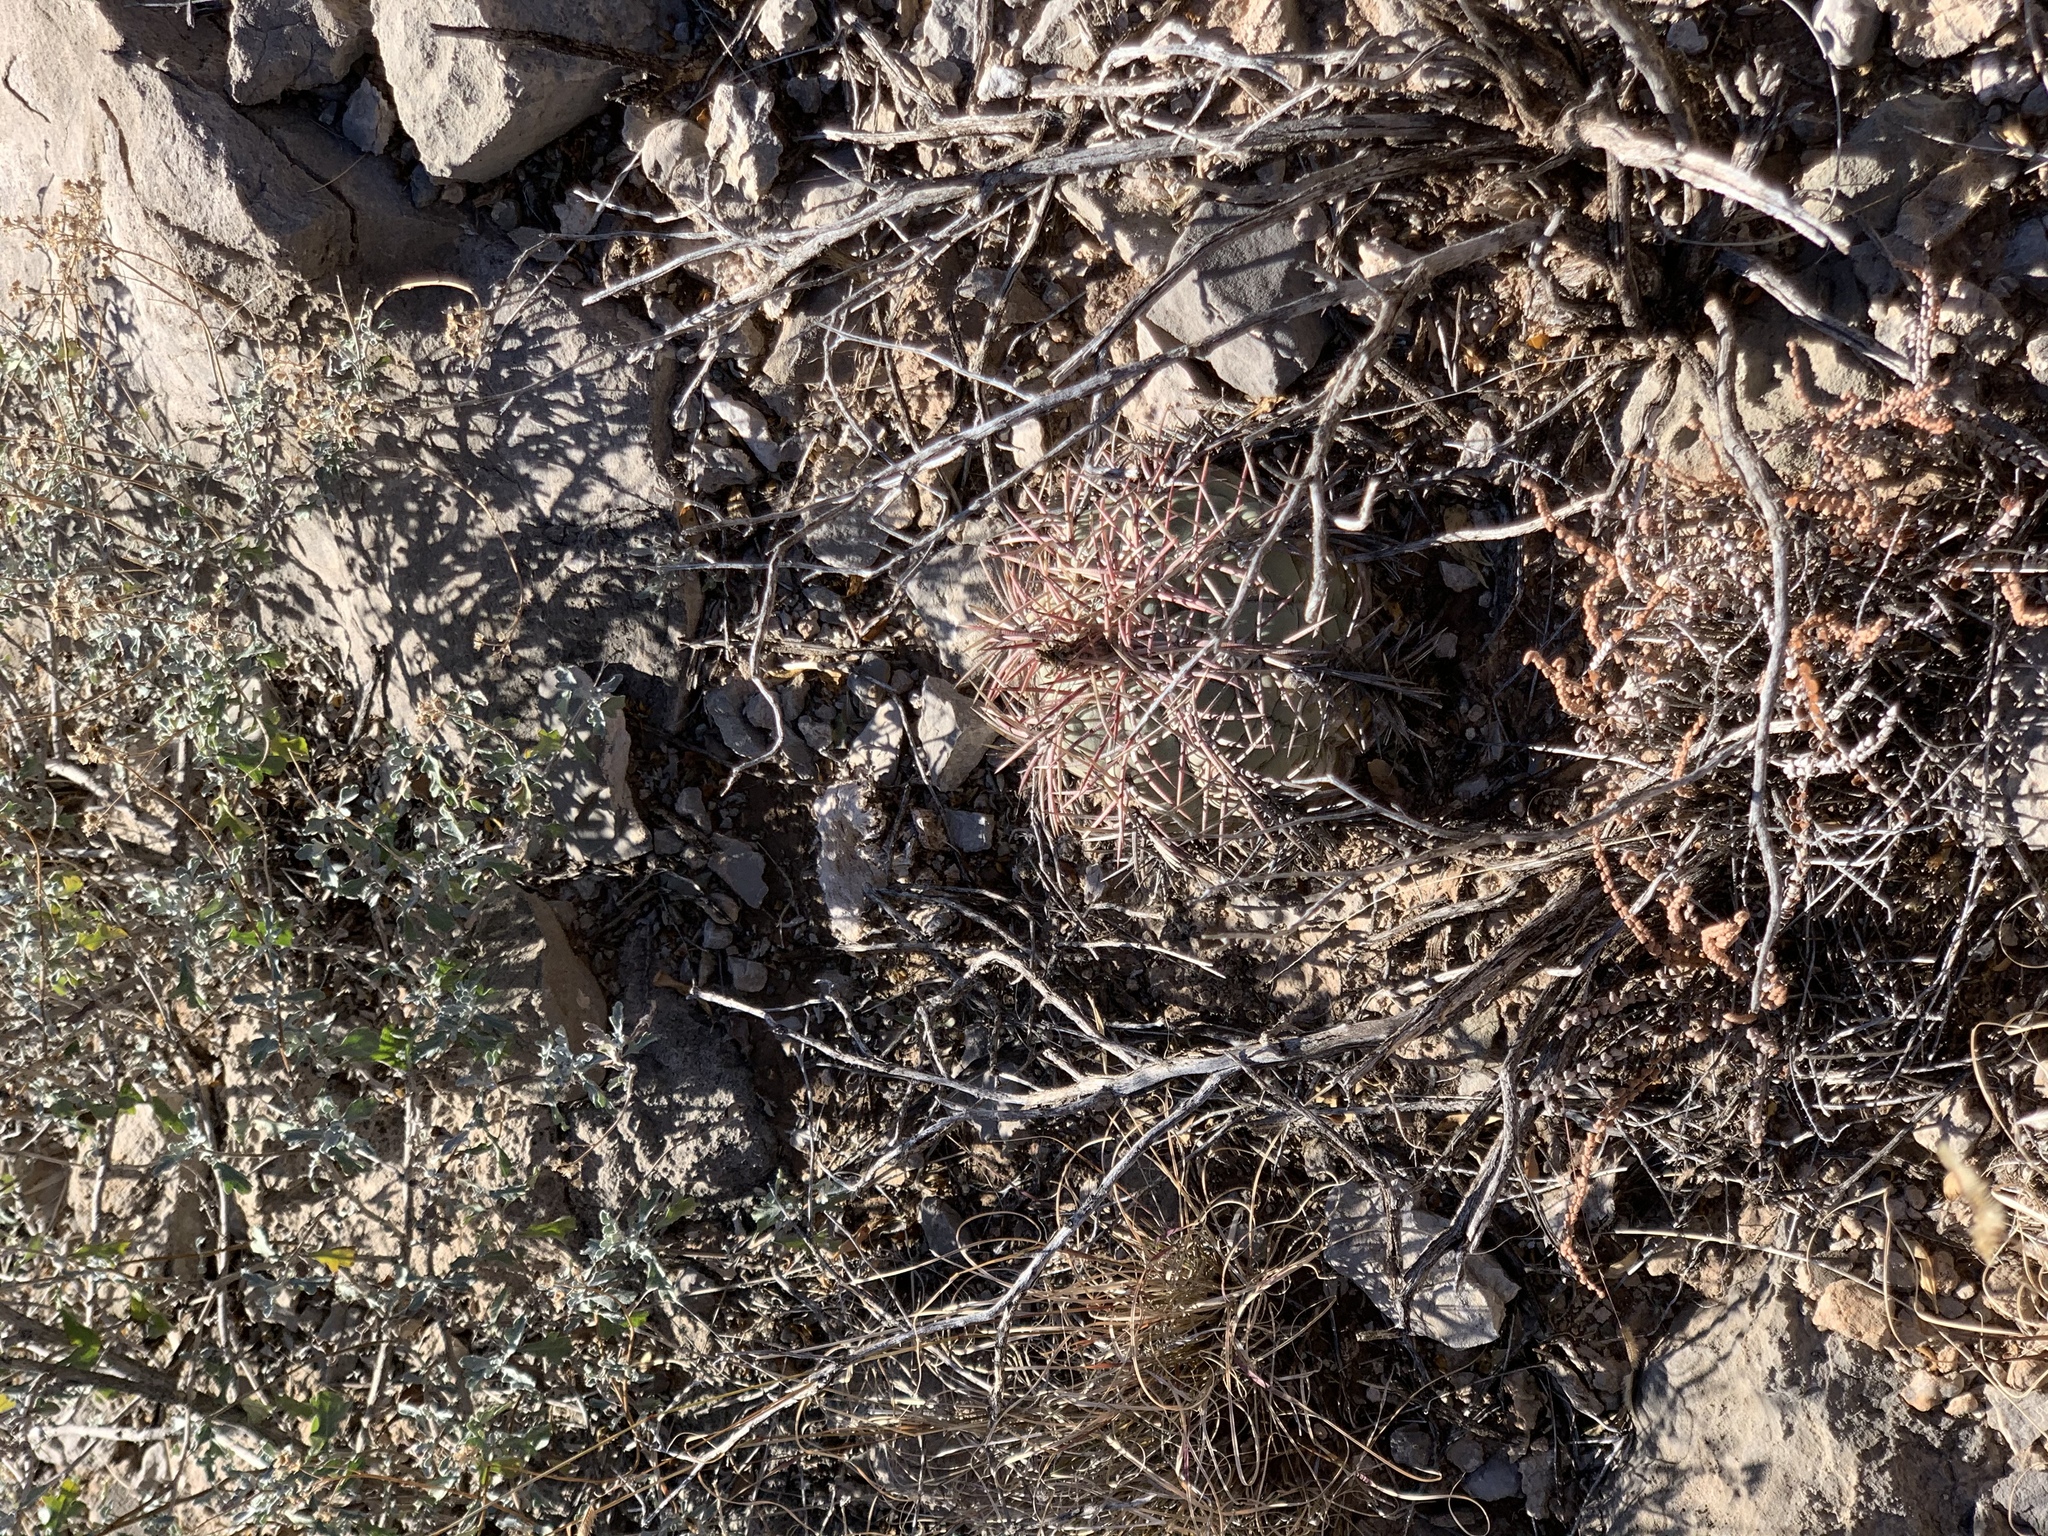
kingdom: Plantae
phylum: Tracheophyta
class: Magnoliopsida
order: Caryophyllales
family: Cactaceae
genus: Echinocactus
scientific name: Echinocactus horizonthalonius
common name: Devilshead
